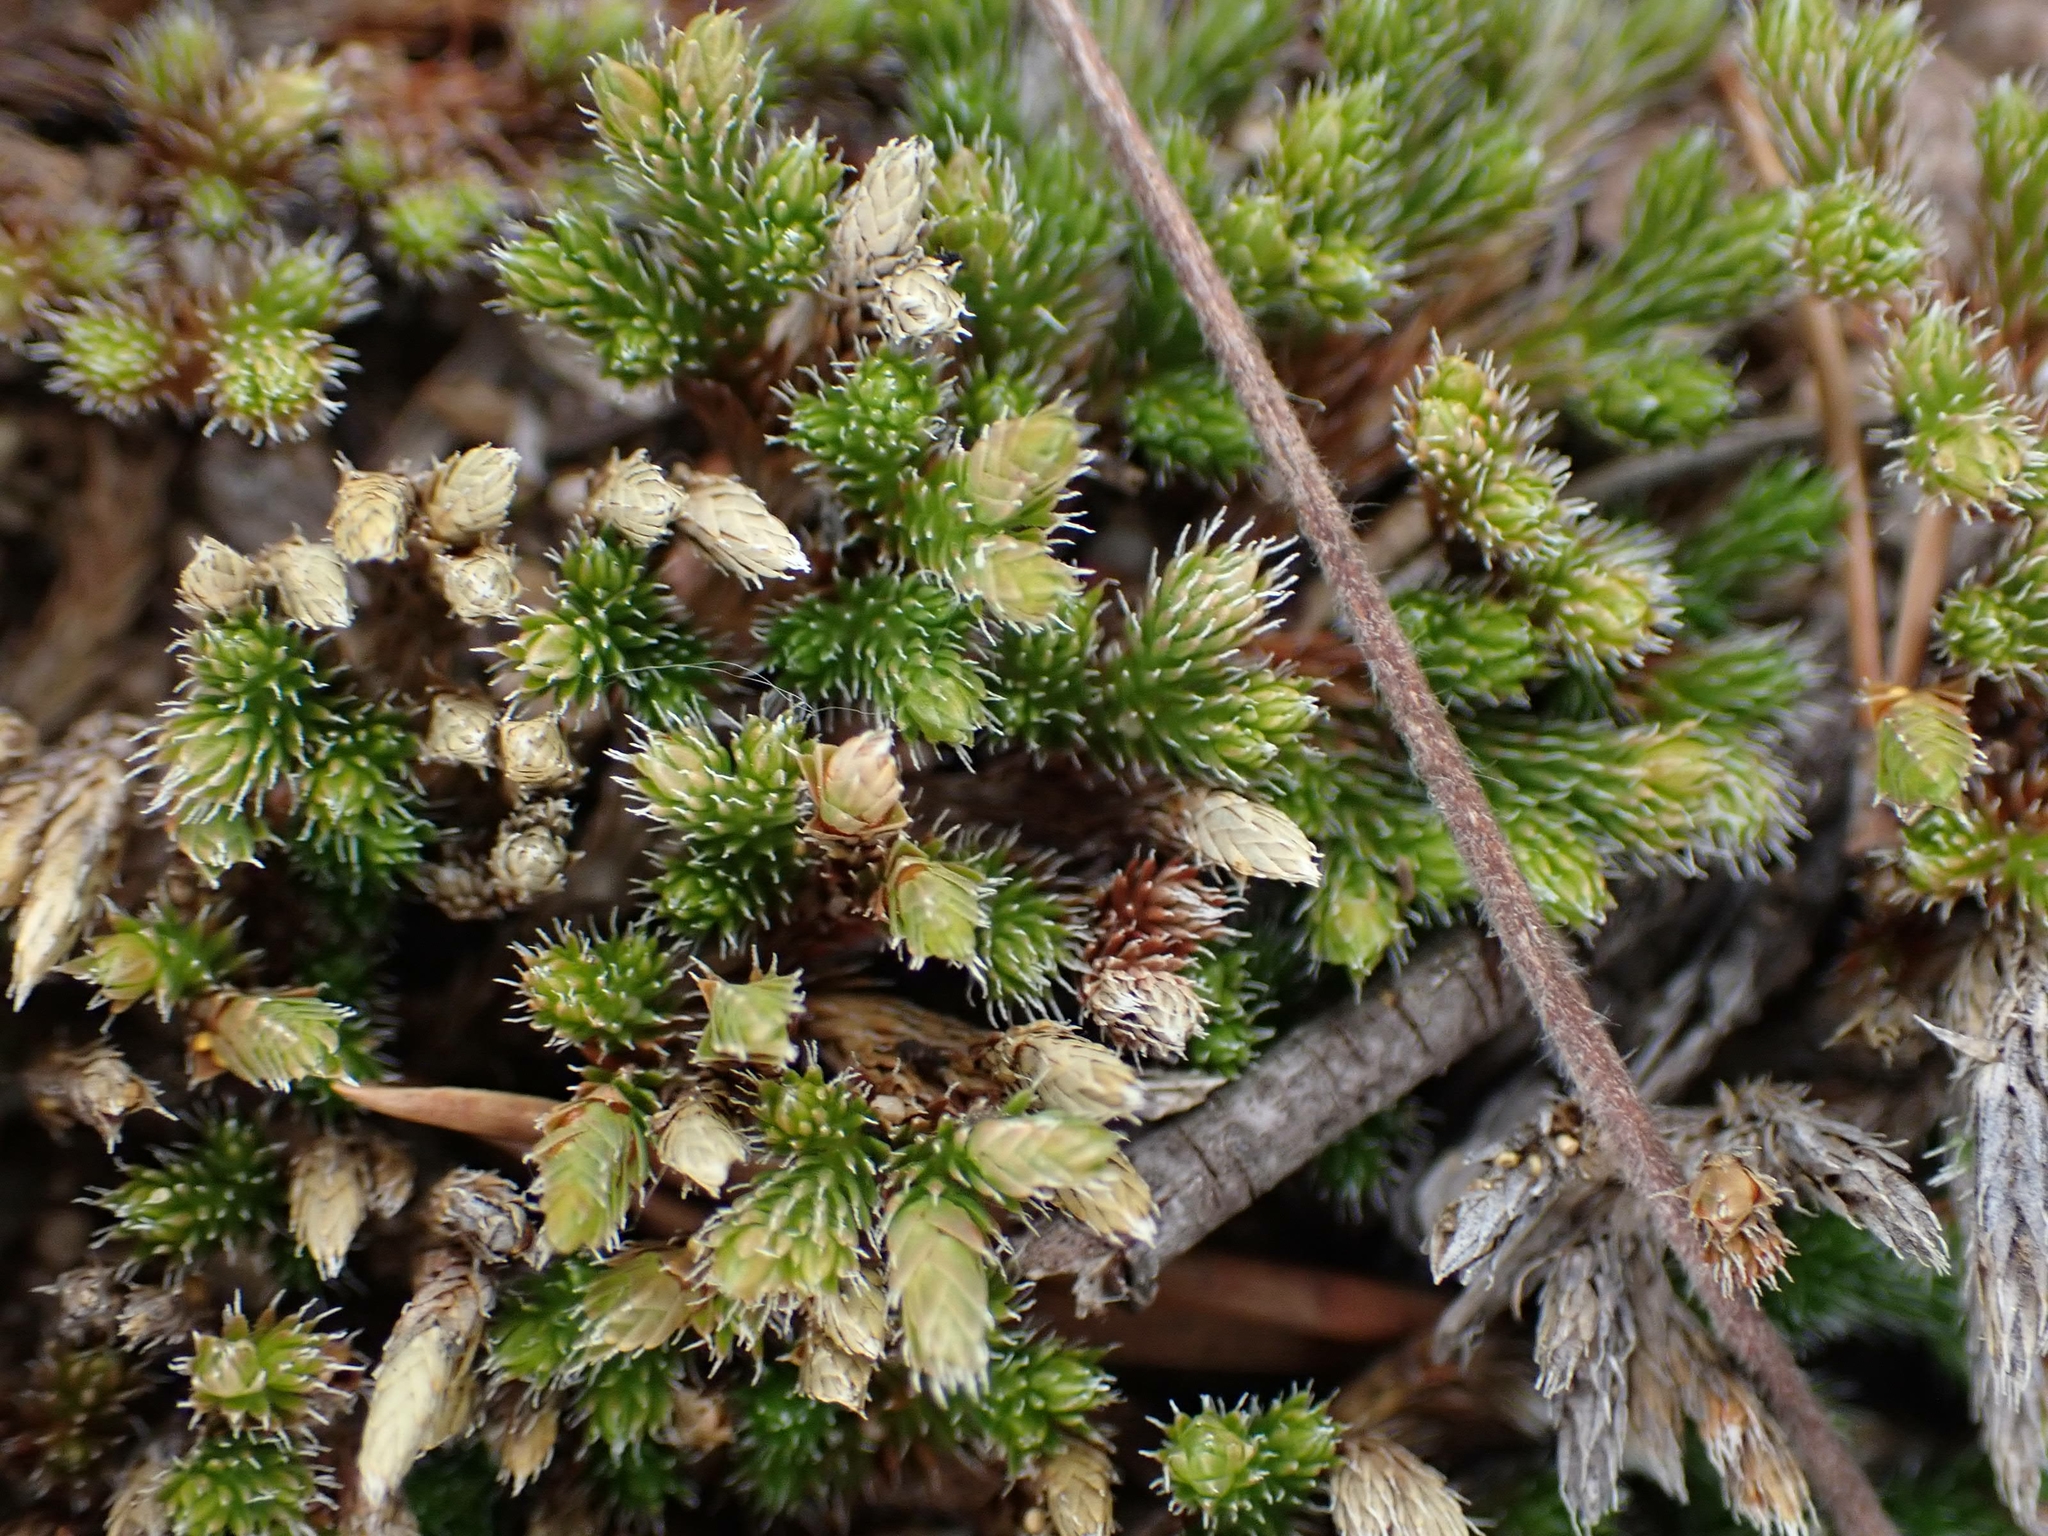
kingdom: Plantae
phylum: Tracheophyta
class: Lycopodiopsida
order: Selaginellales
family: Selaginellaceae
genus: Selaginella
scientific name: Selaginella rupestris
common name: Dwarf spikemoss
